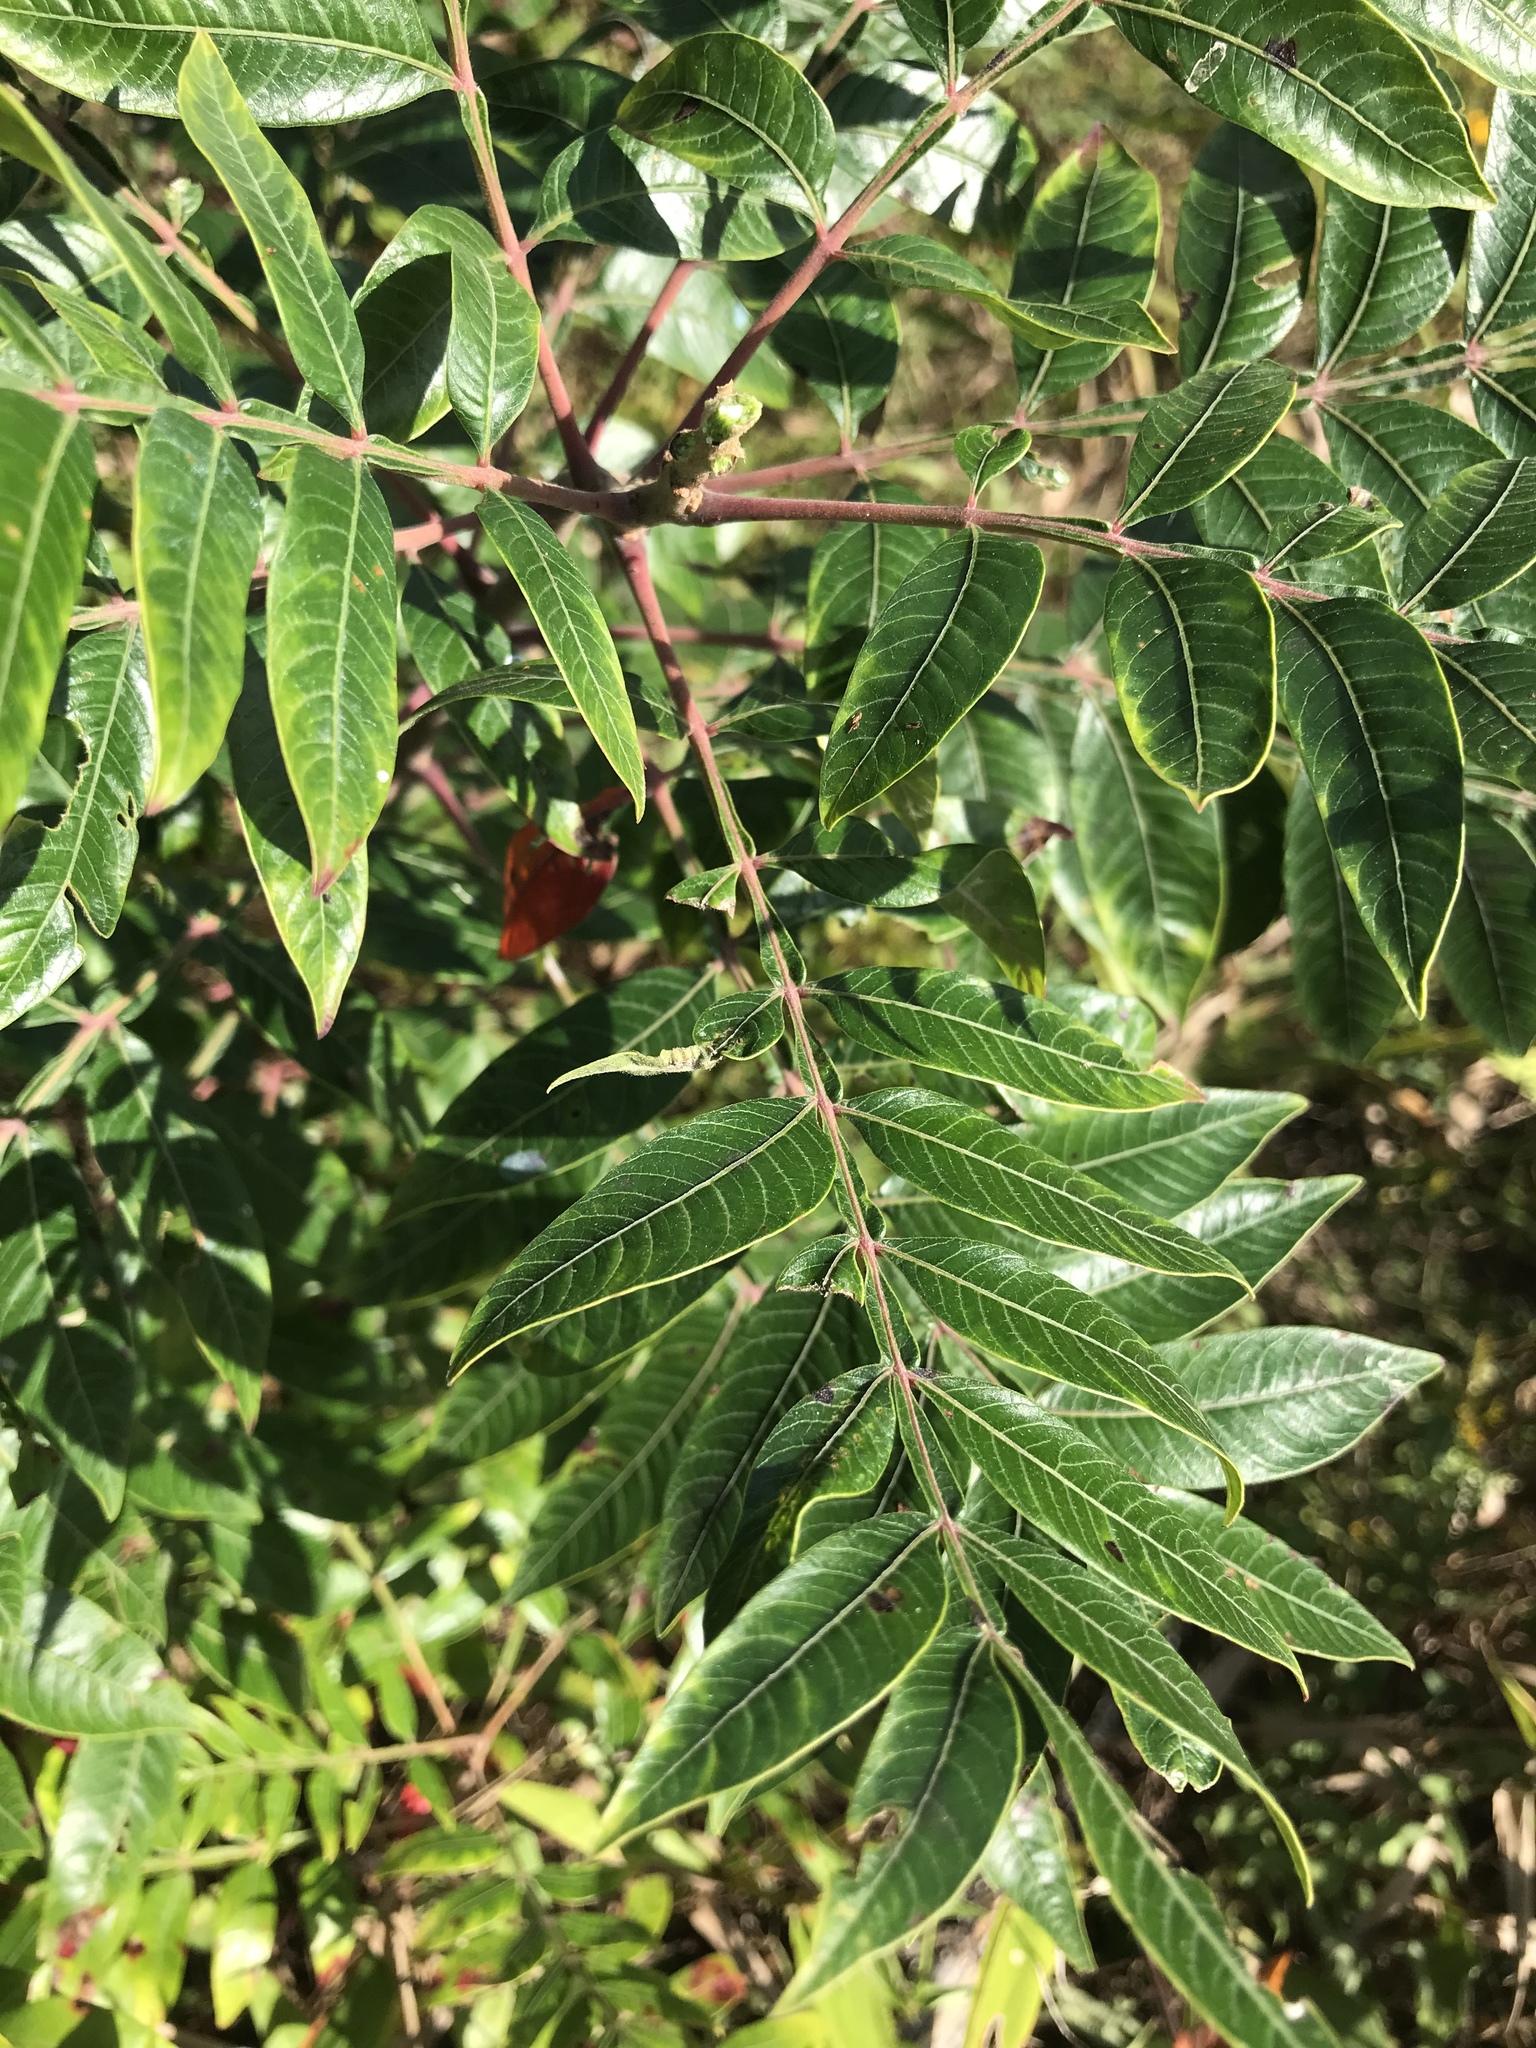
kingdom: Plantae
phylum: Tracheophyta
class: Magnoliopsida
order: Sapindales
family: Anacardiaceae
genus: Rhus
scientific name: Rhus copallina
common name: Shining sumac
